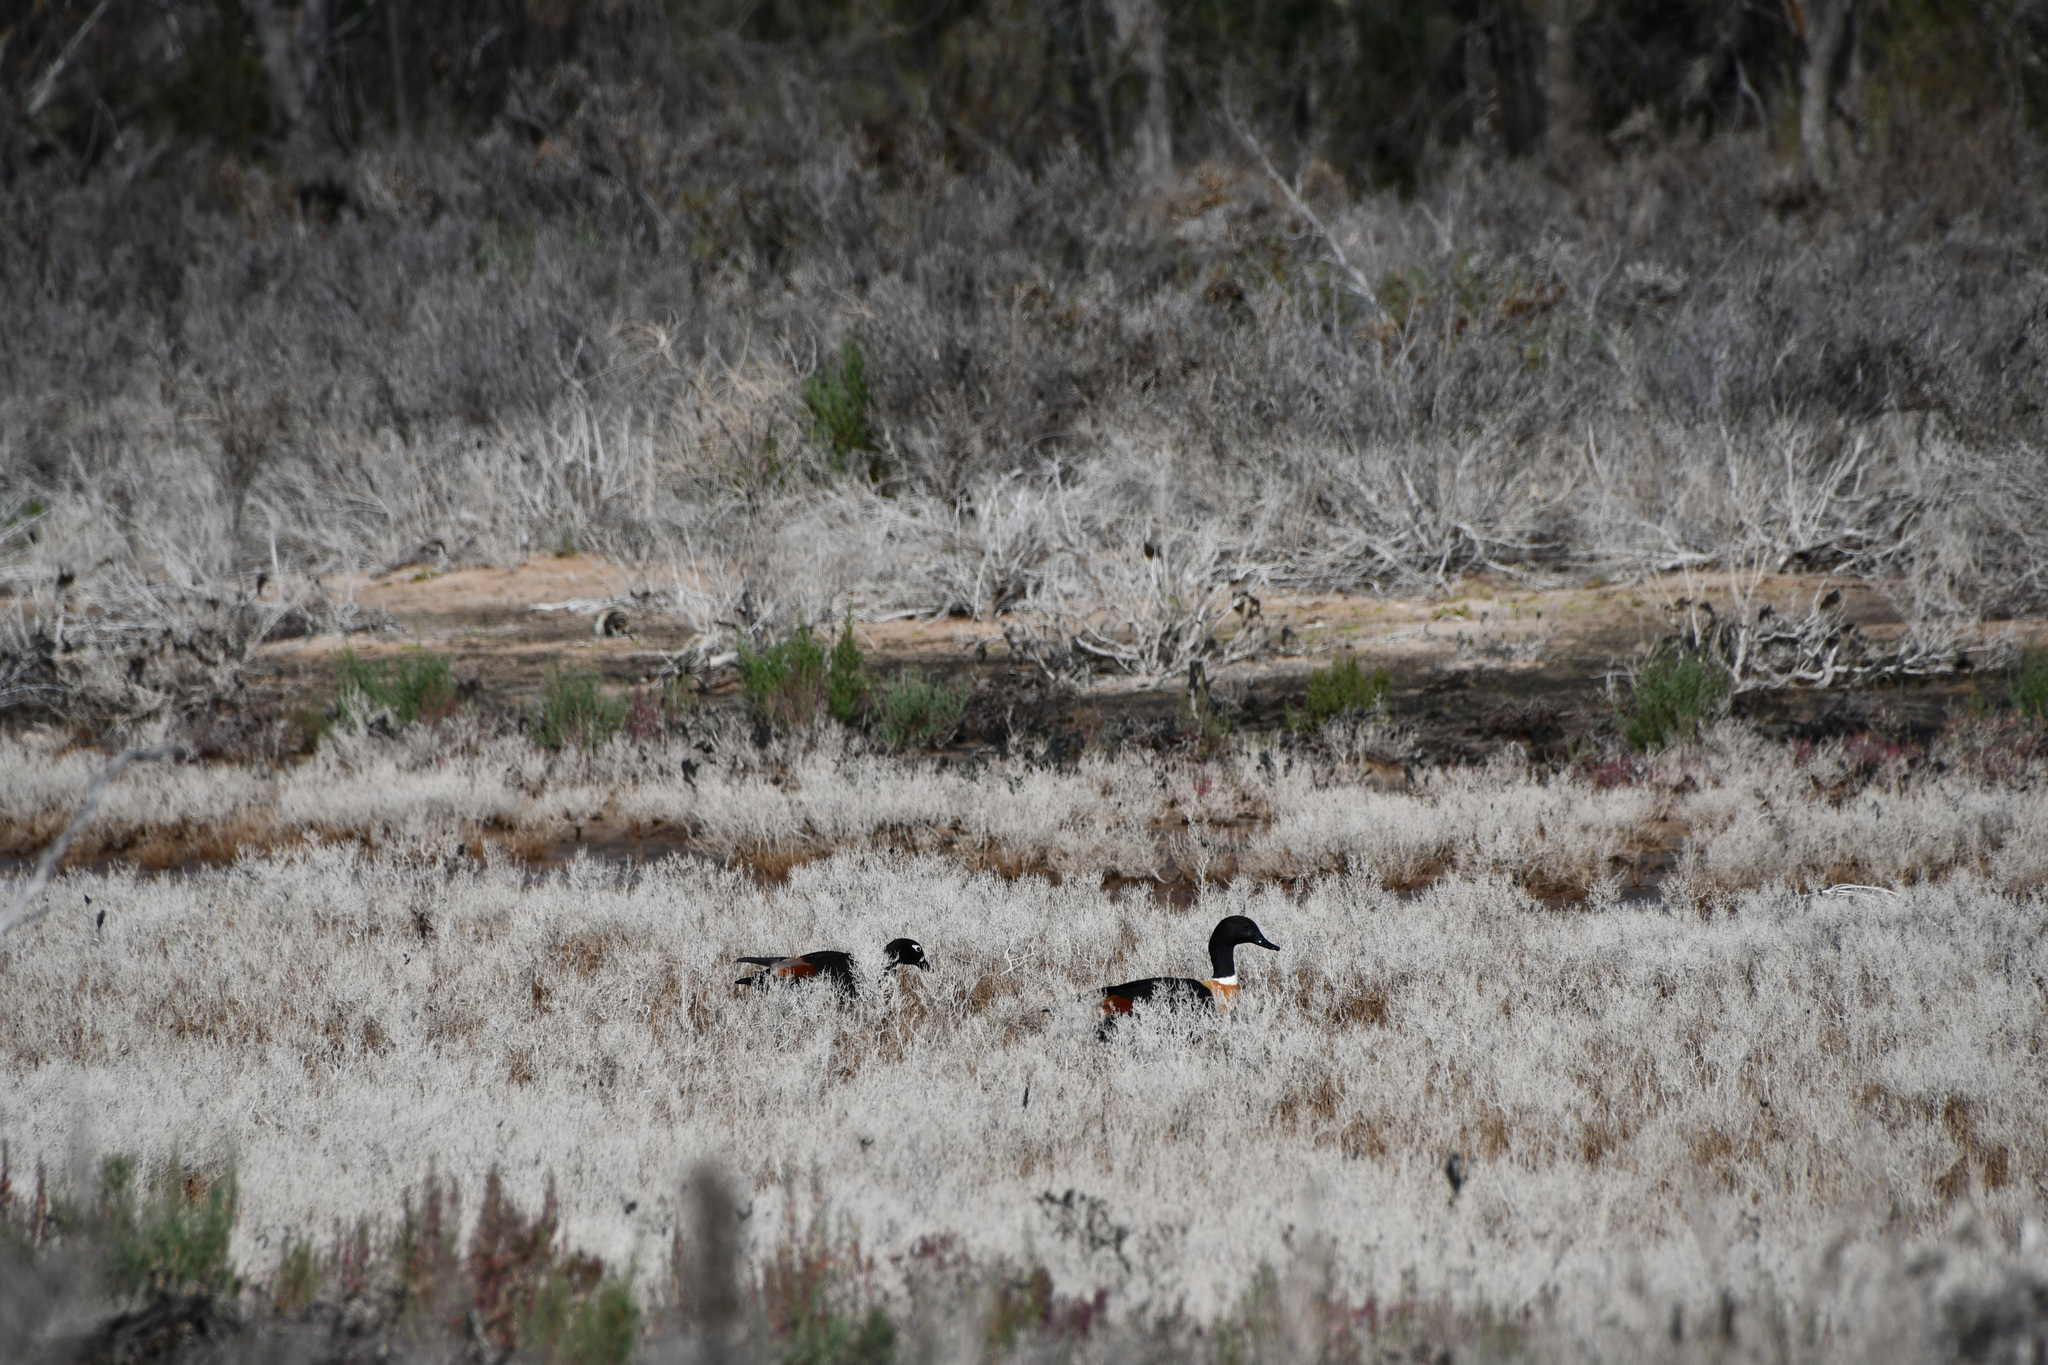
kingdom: Animalia
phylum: Chordata
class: Aves
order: Anseriformes
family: Anatidae
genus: Tadorna
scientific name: Tadorna tadornoides
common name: Australian shelduck
